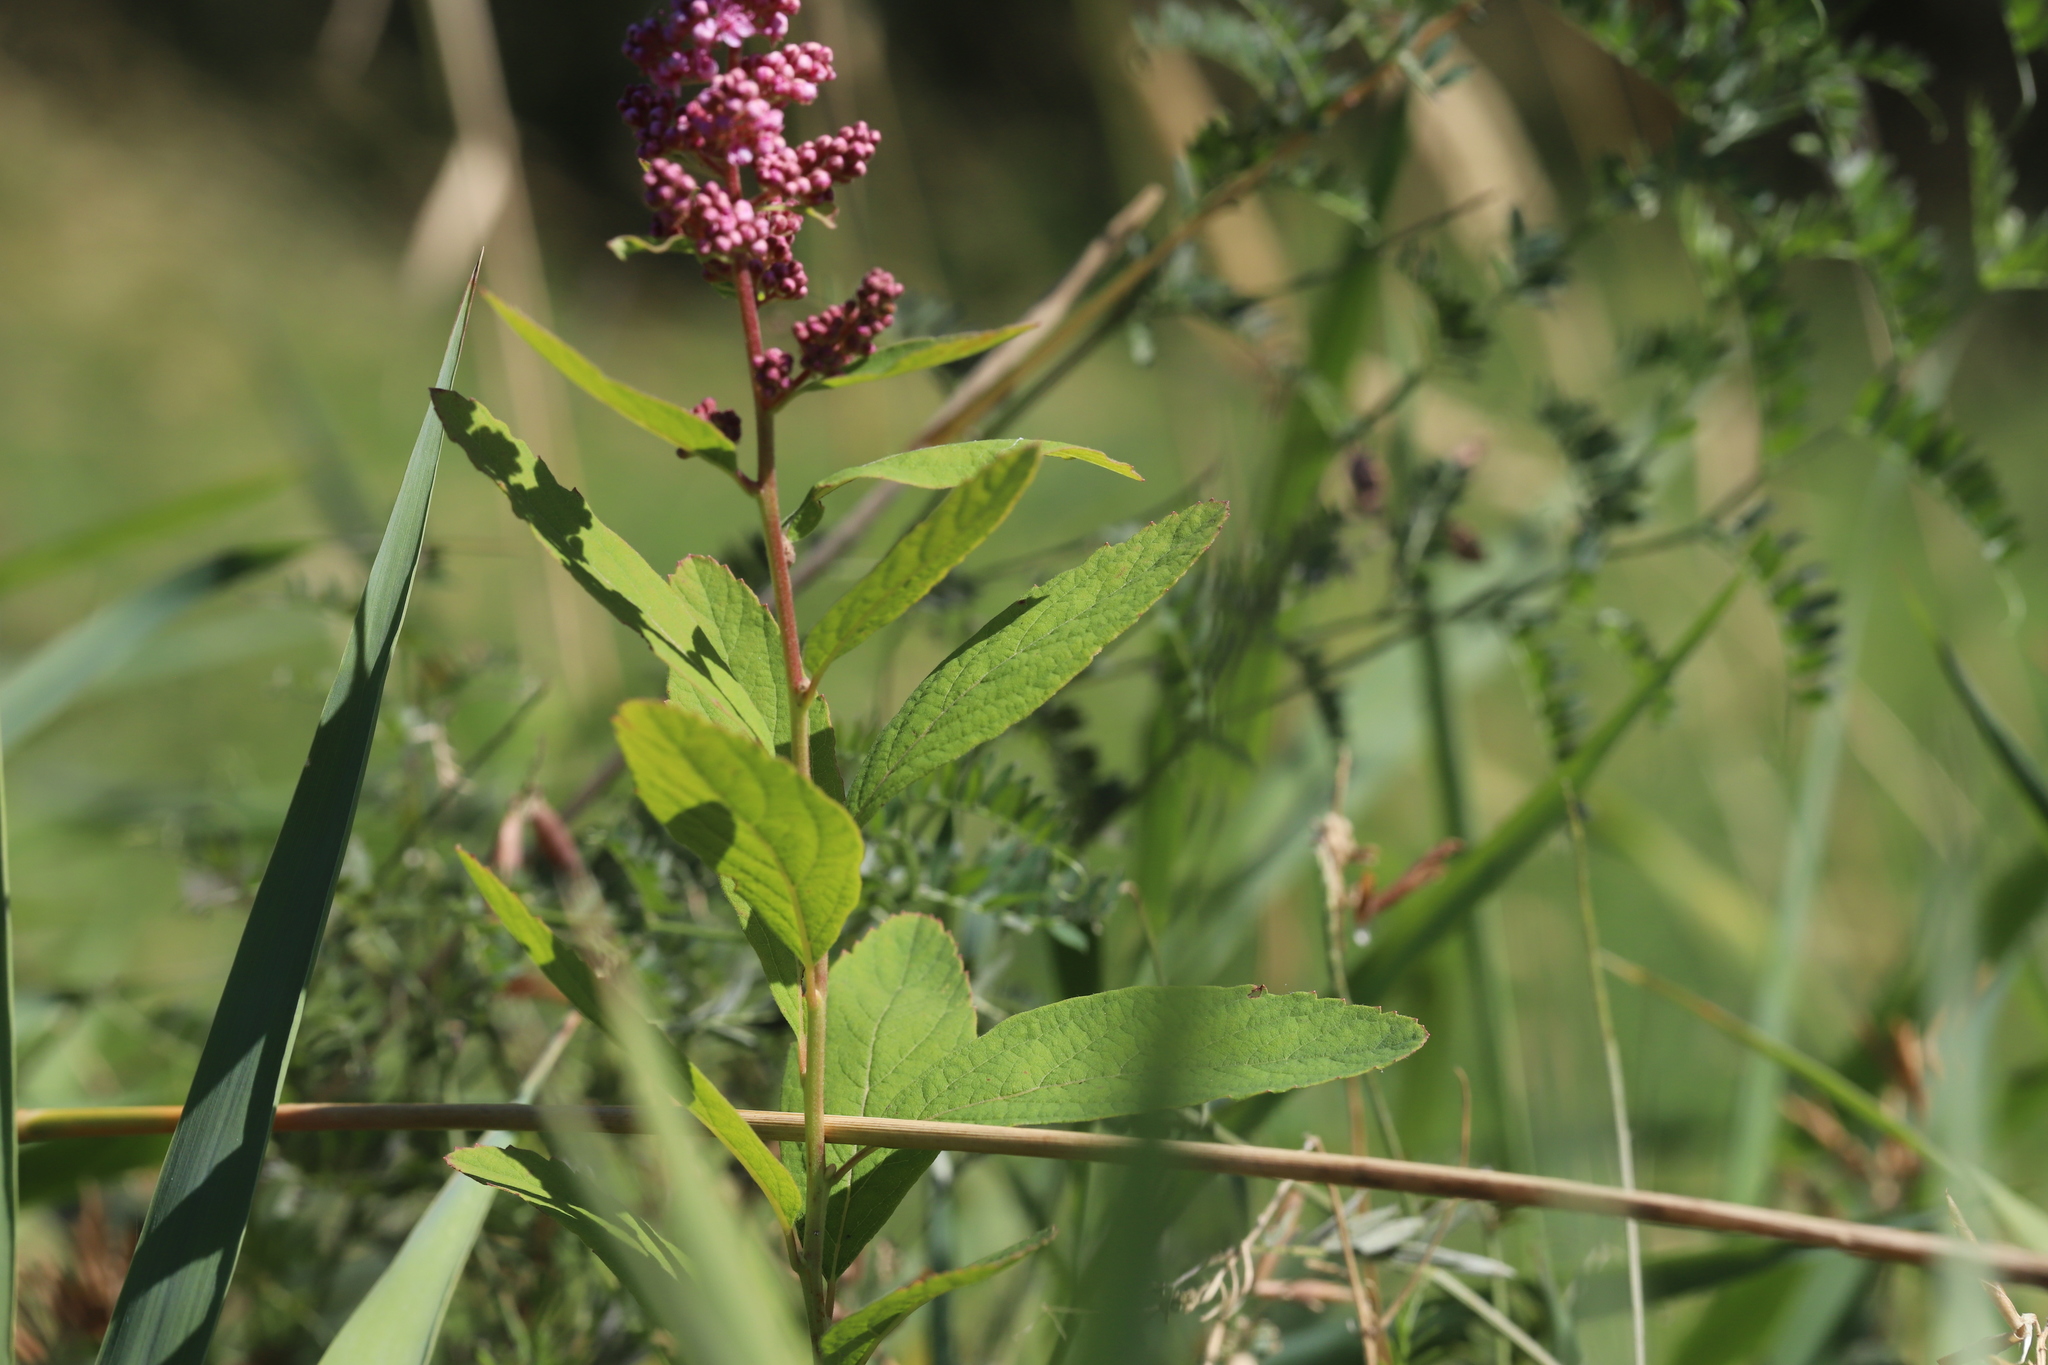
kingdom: Plantae
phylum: Tracheophyta
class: Magnoliopsida
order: Rosales
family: Rosaceae
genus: Spiraea
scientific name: Spiraea douglasii
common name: Steeplebush
